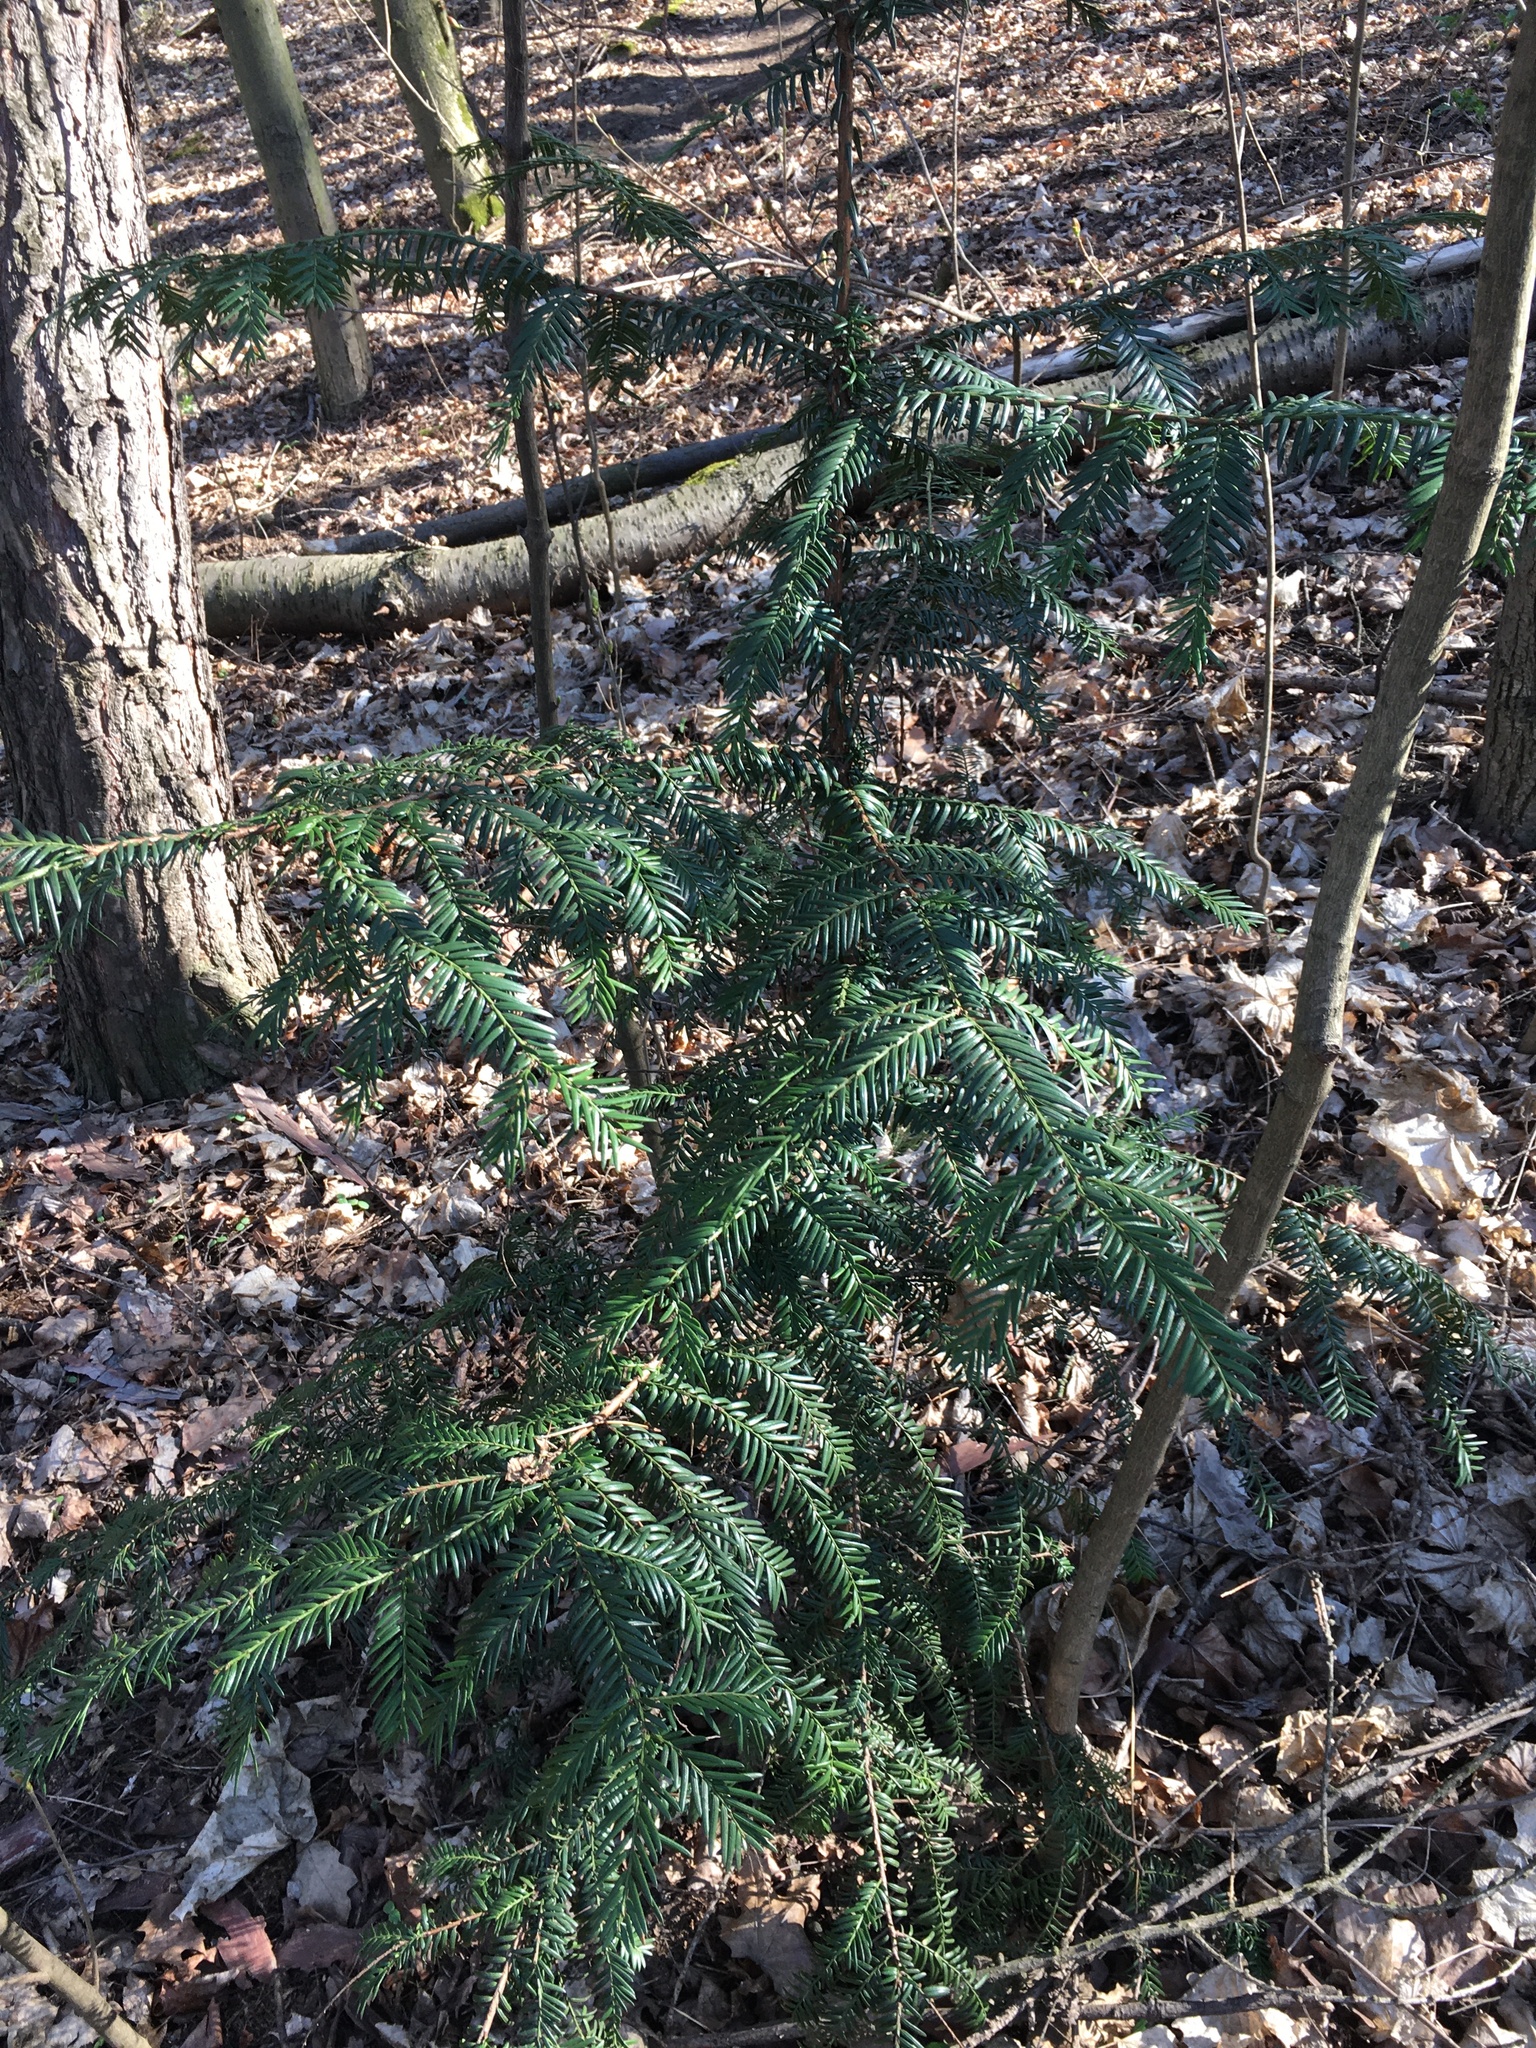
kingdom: Plantae
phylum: Tracheophyta
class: Pinopsida
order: Pinales
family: Taxaceae
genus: Taxus
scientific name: Taxus baccata
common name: Yew
